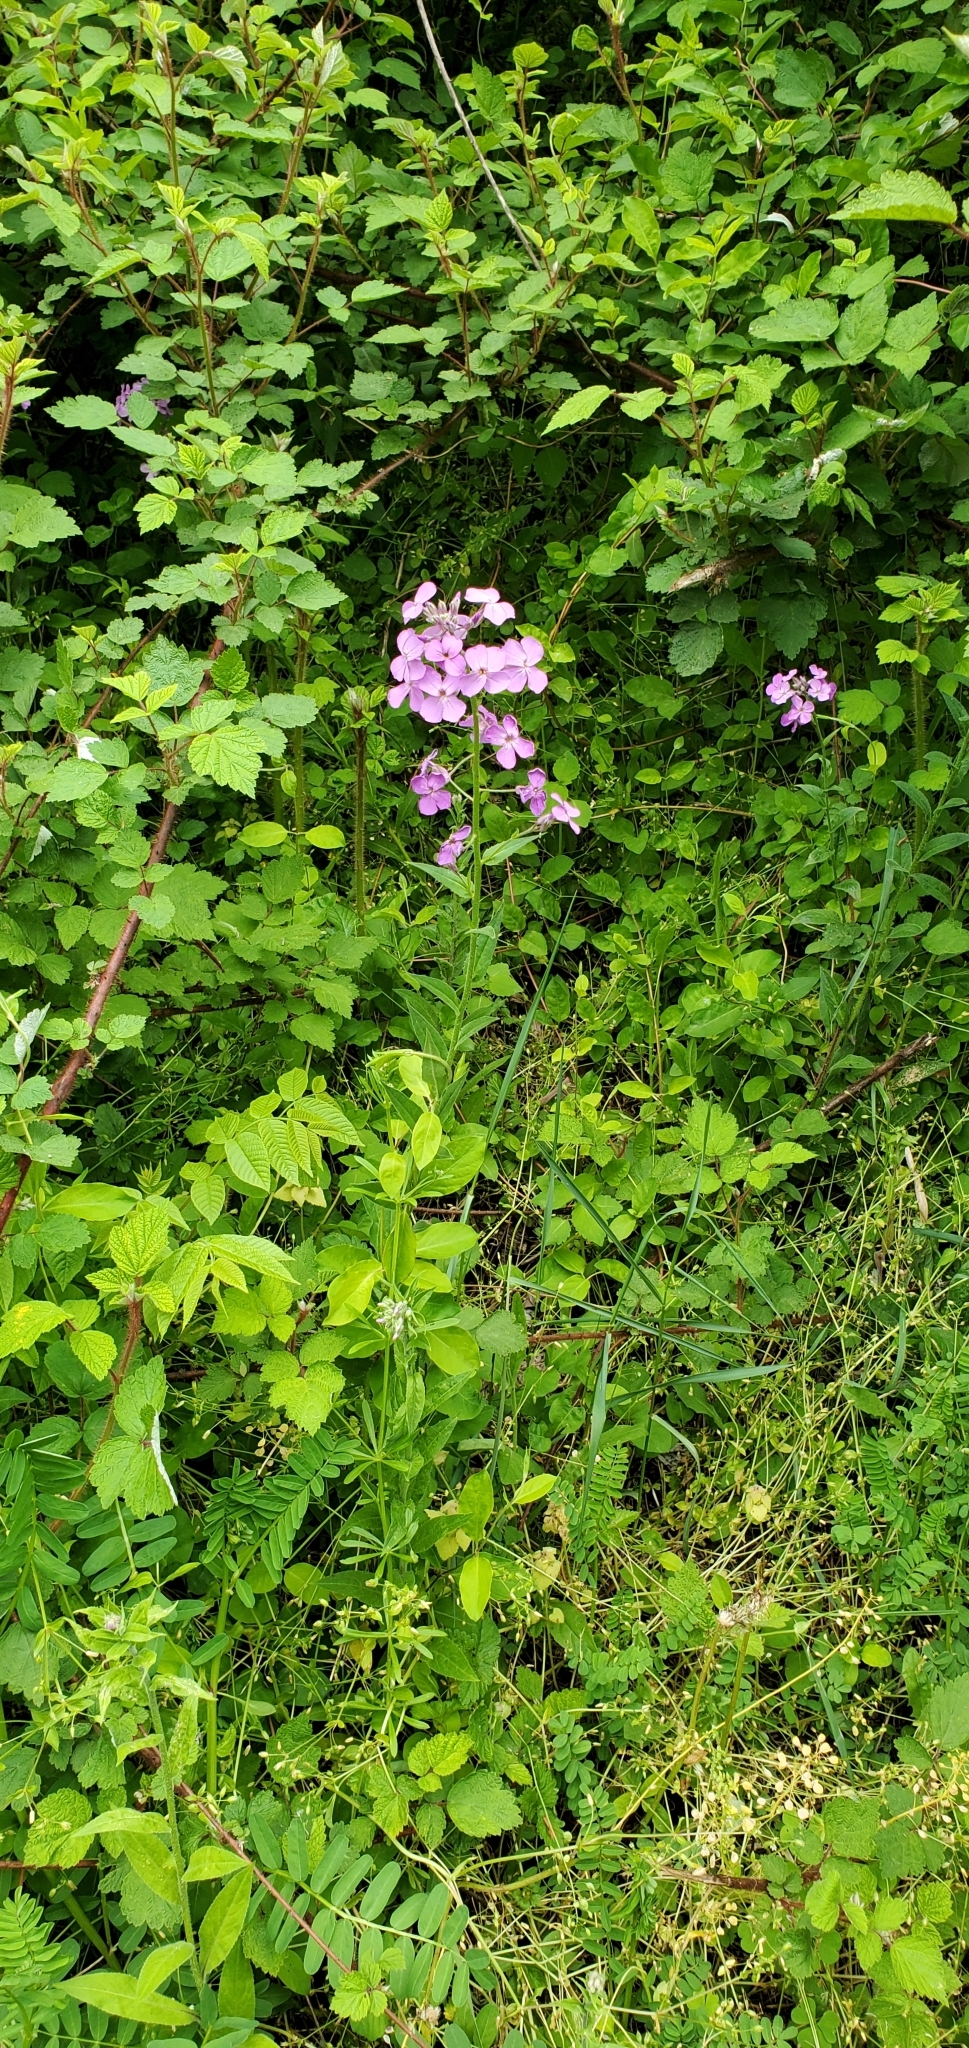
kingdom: Plantae
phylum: Tracheophyta
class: Magnoliopsida
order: Brassicales
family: Brassicaceae
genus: Hesperis
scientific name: Hesperis matronalis
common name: Dame's-violet
